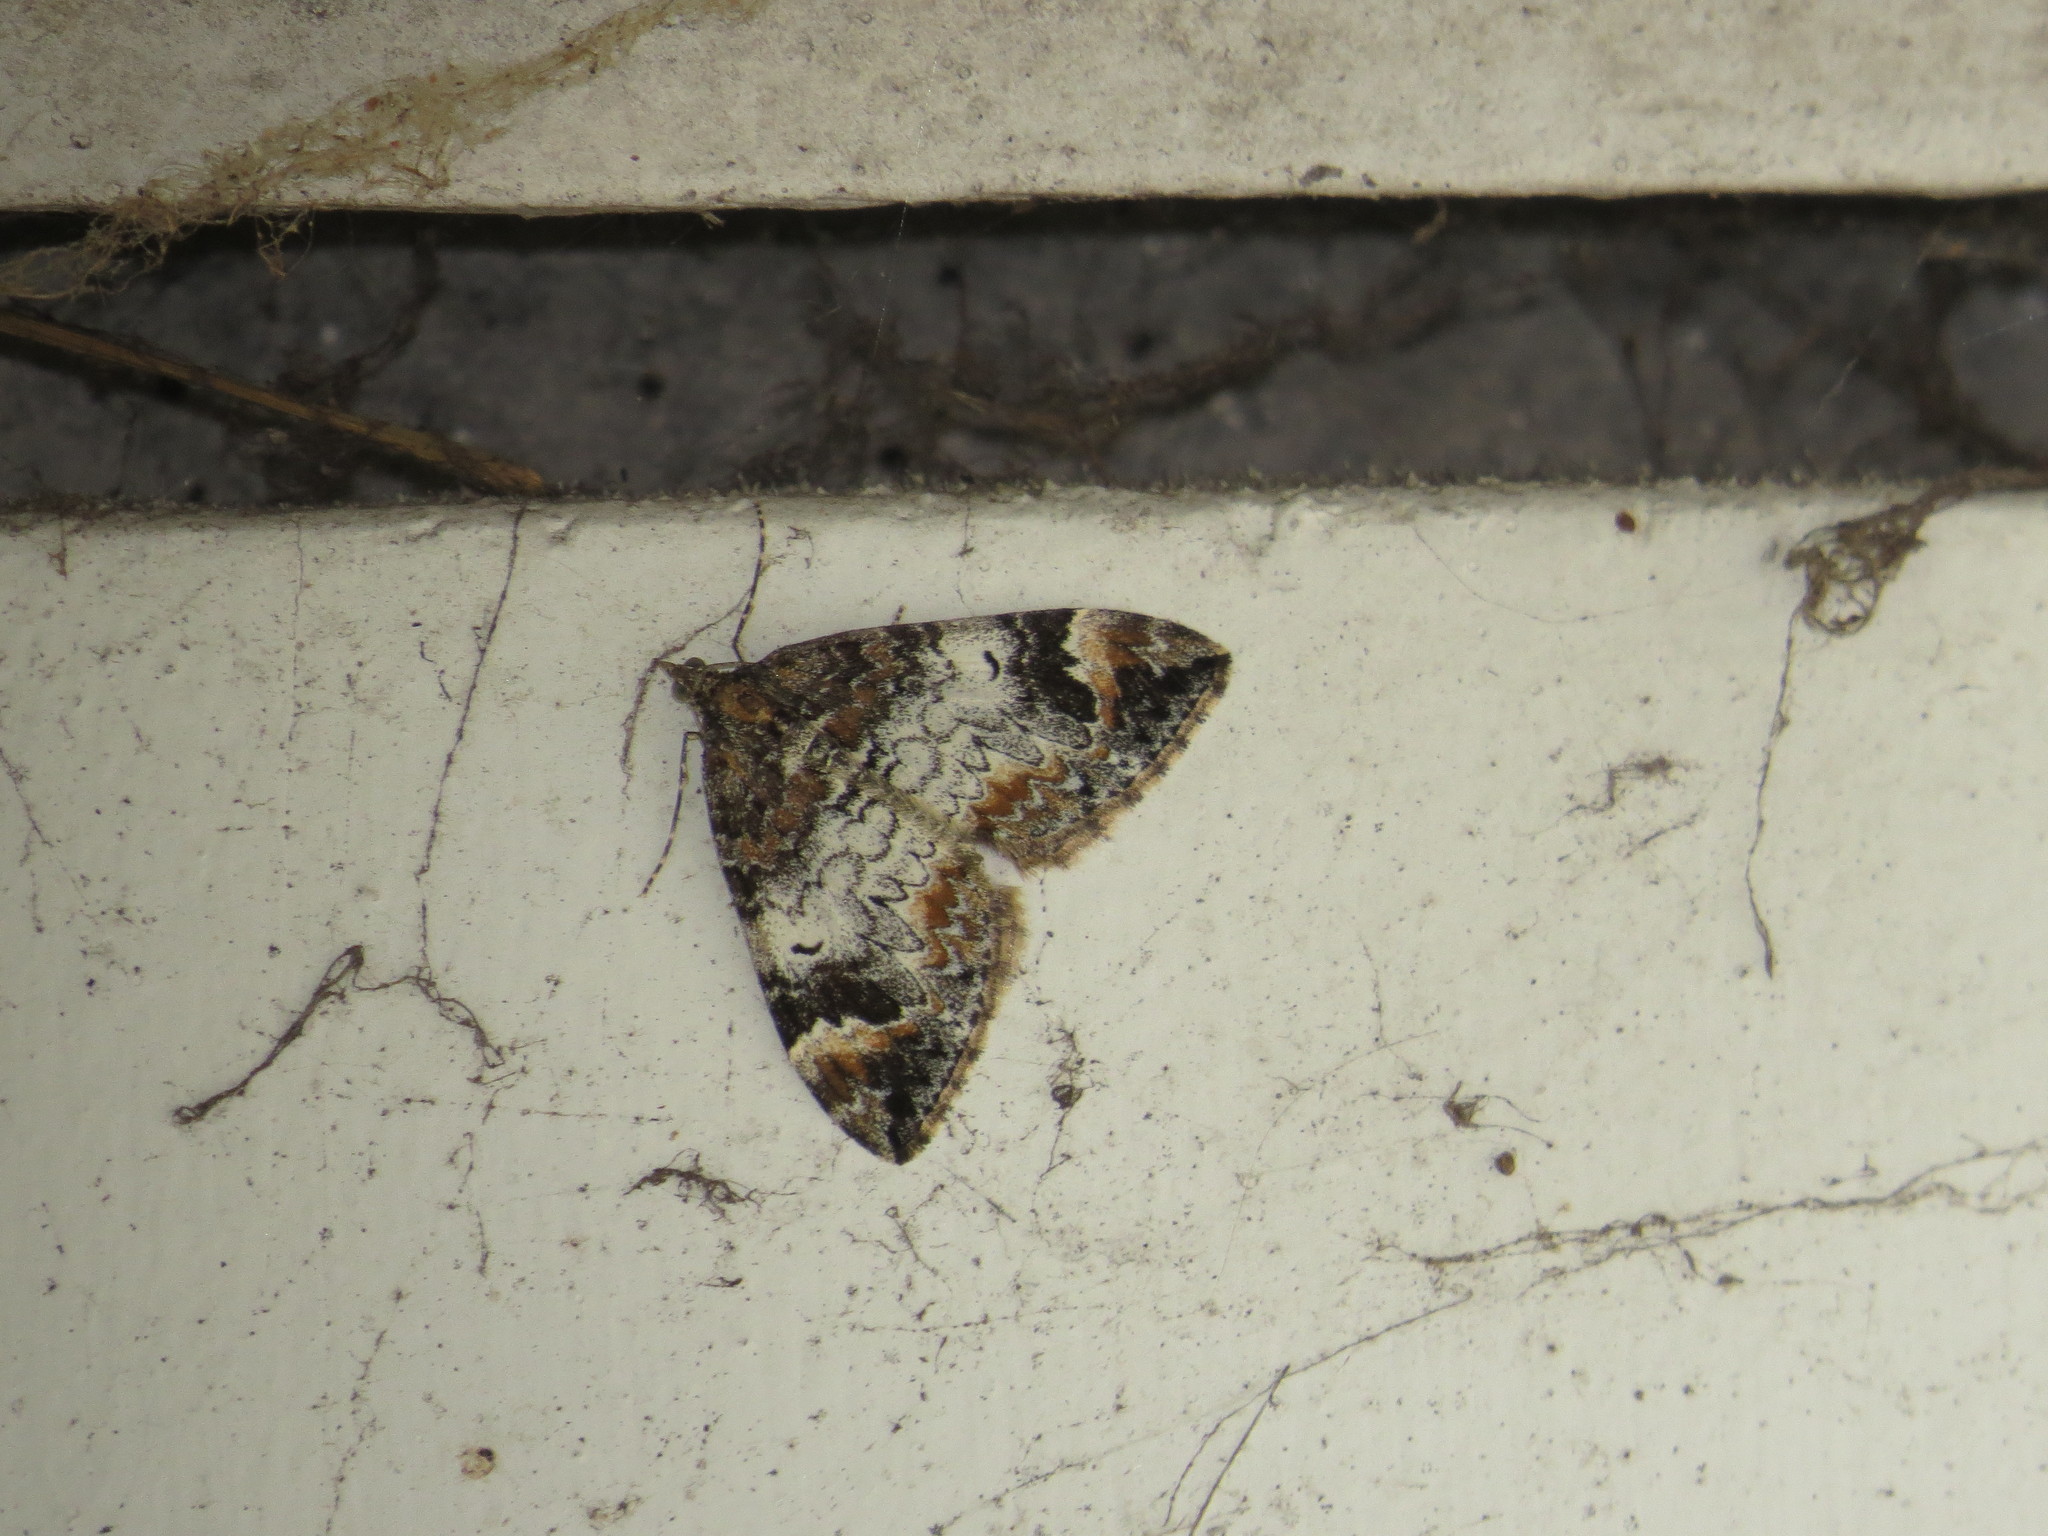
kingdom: Animalia
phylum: Arthropoda
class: Insecta
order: Lepidoptera
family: Geometridae
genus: Dysstroma
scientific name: Dysstroma truncata
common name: Common marbled carpet
